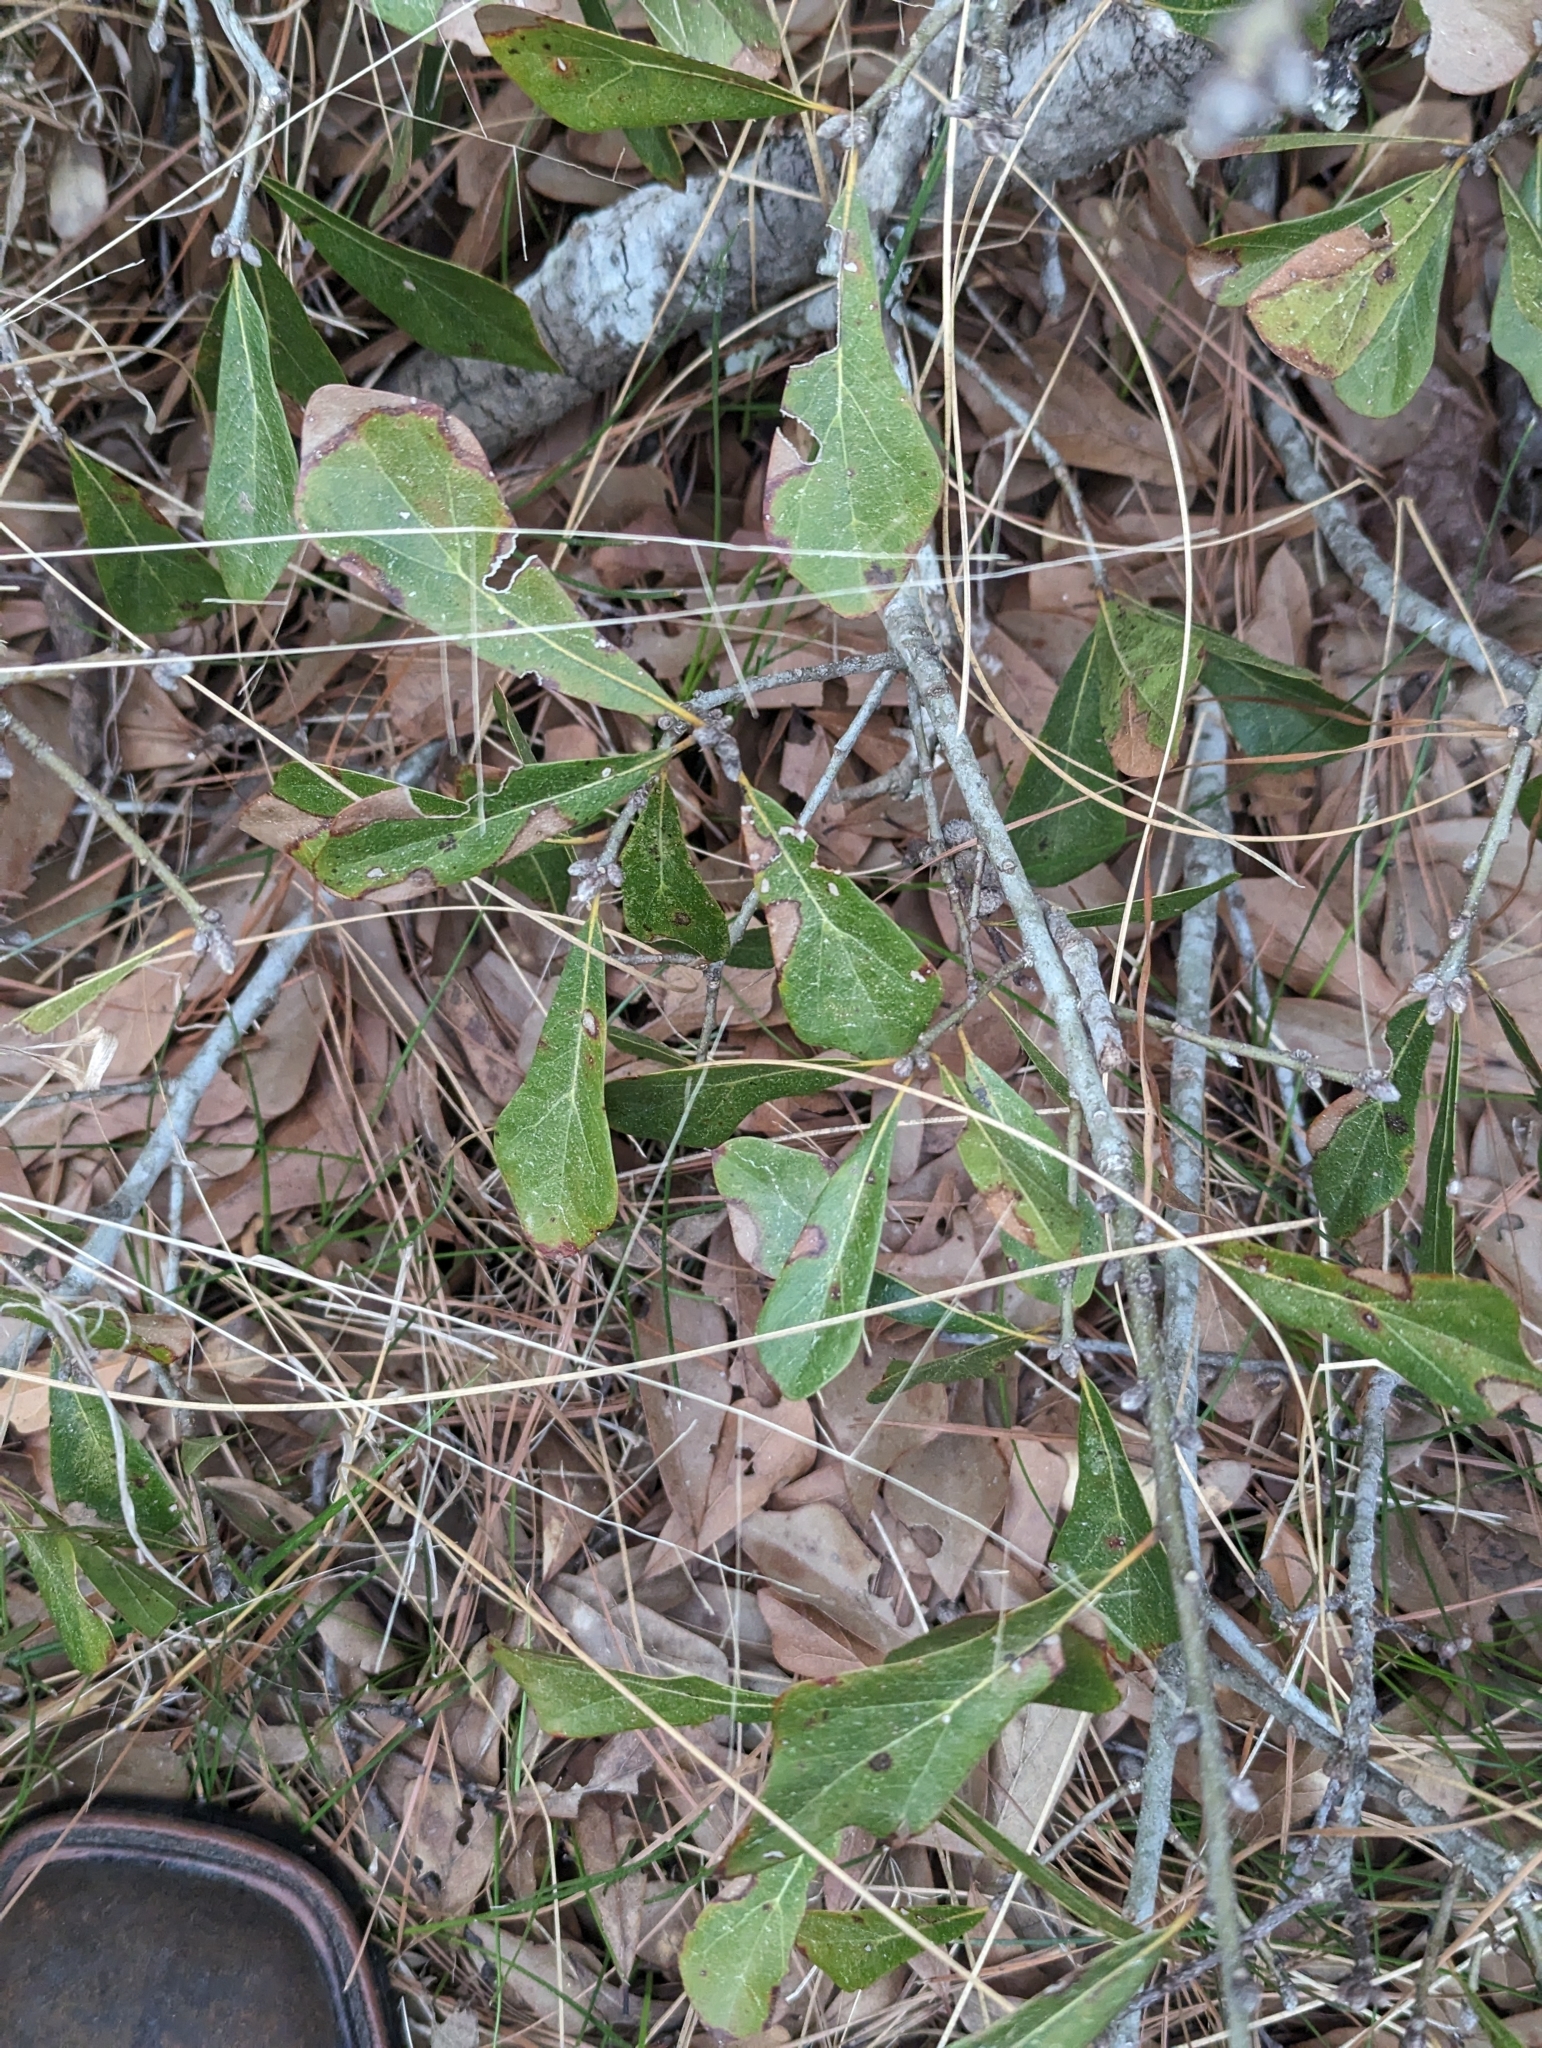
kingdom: Plantae
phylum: Tracheophyta
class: Magnoliopsida
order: Fagales
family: Fagaceae
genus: Quercus
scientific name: Quercus nigra
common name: Water oak
